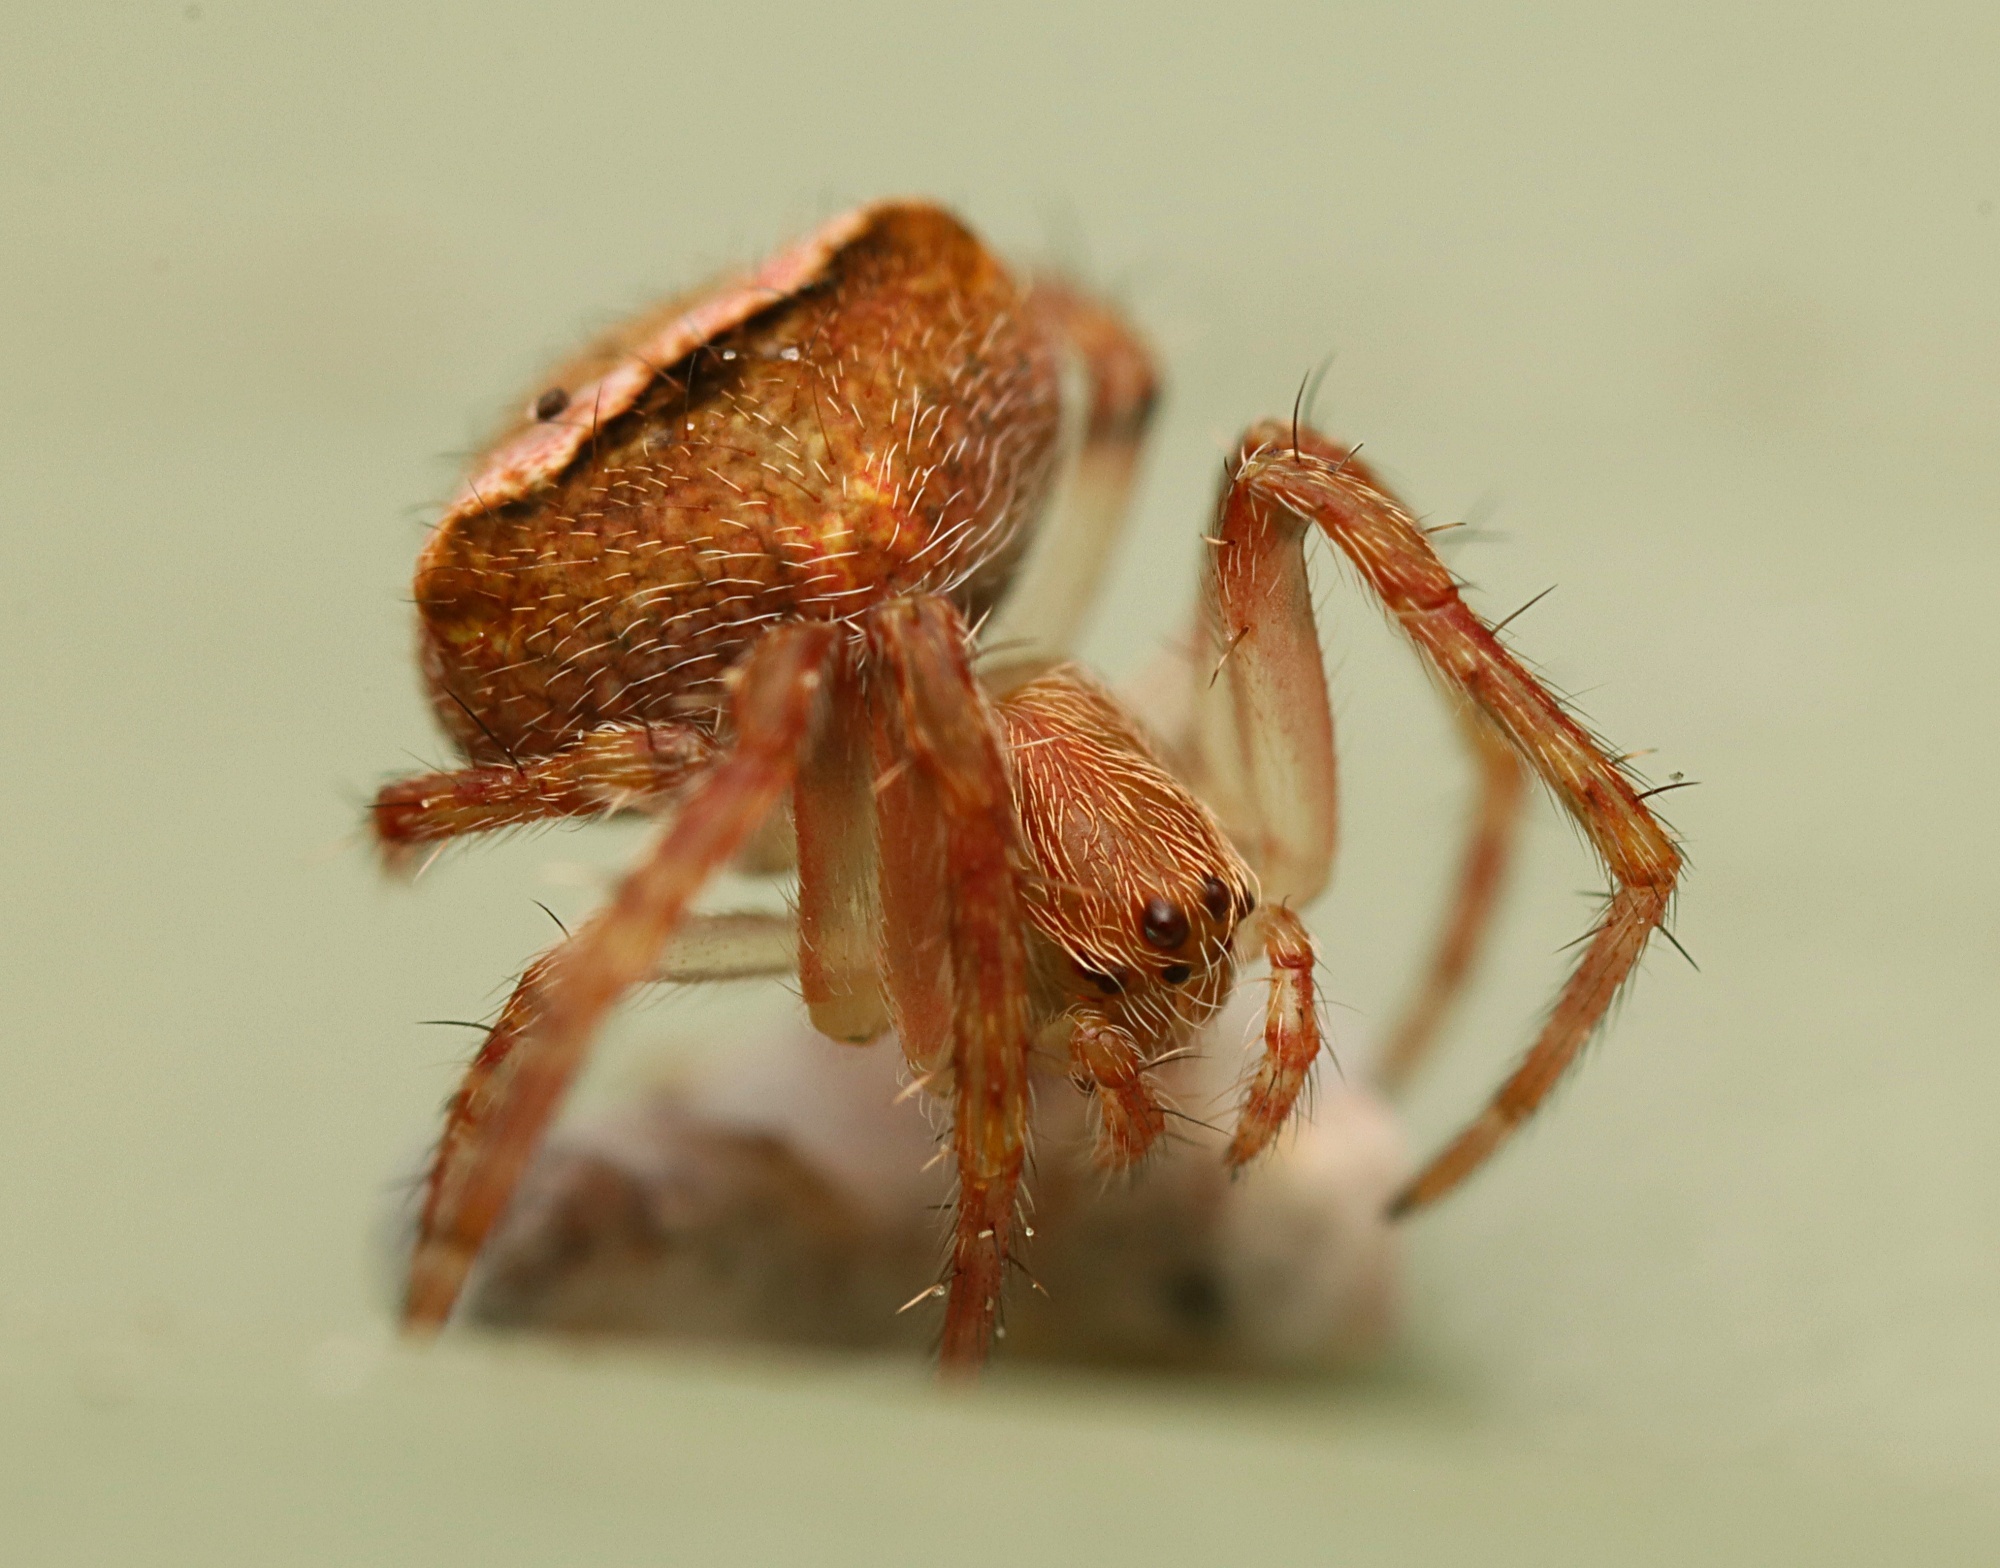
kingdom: Animalia
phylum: Arthropoda
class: Arachnida
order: Araneae
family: Araneidae
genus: Novakiella
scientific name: Novakiella trituberculosa
